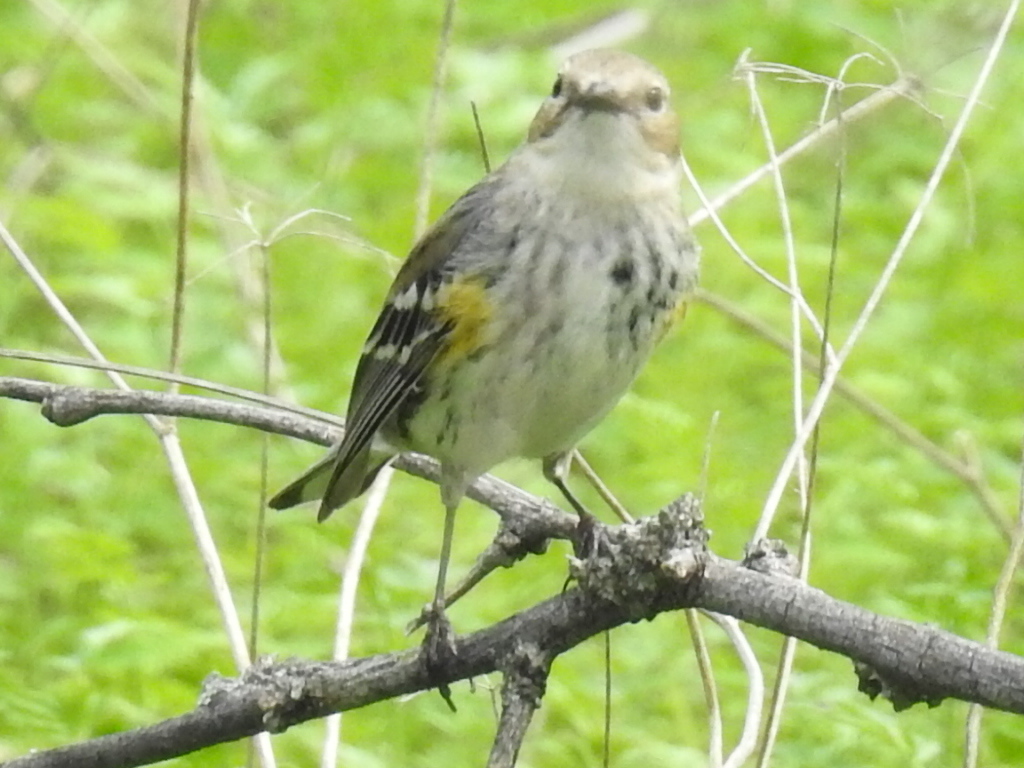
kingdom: Animalia
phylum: Chordata
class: Aves
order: Passeriformes
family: Parulidae
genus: Setophaga
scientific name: Setophaga coronata
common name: Myrtle warbler
